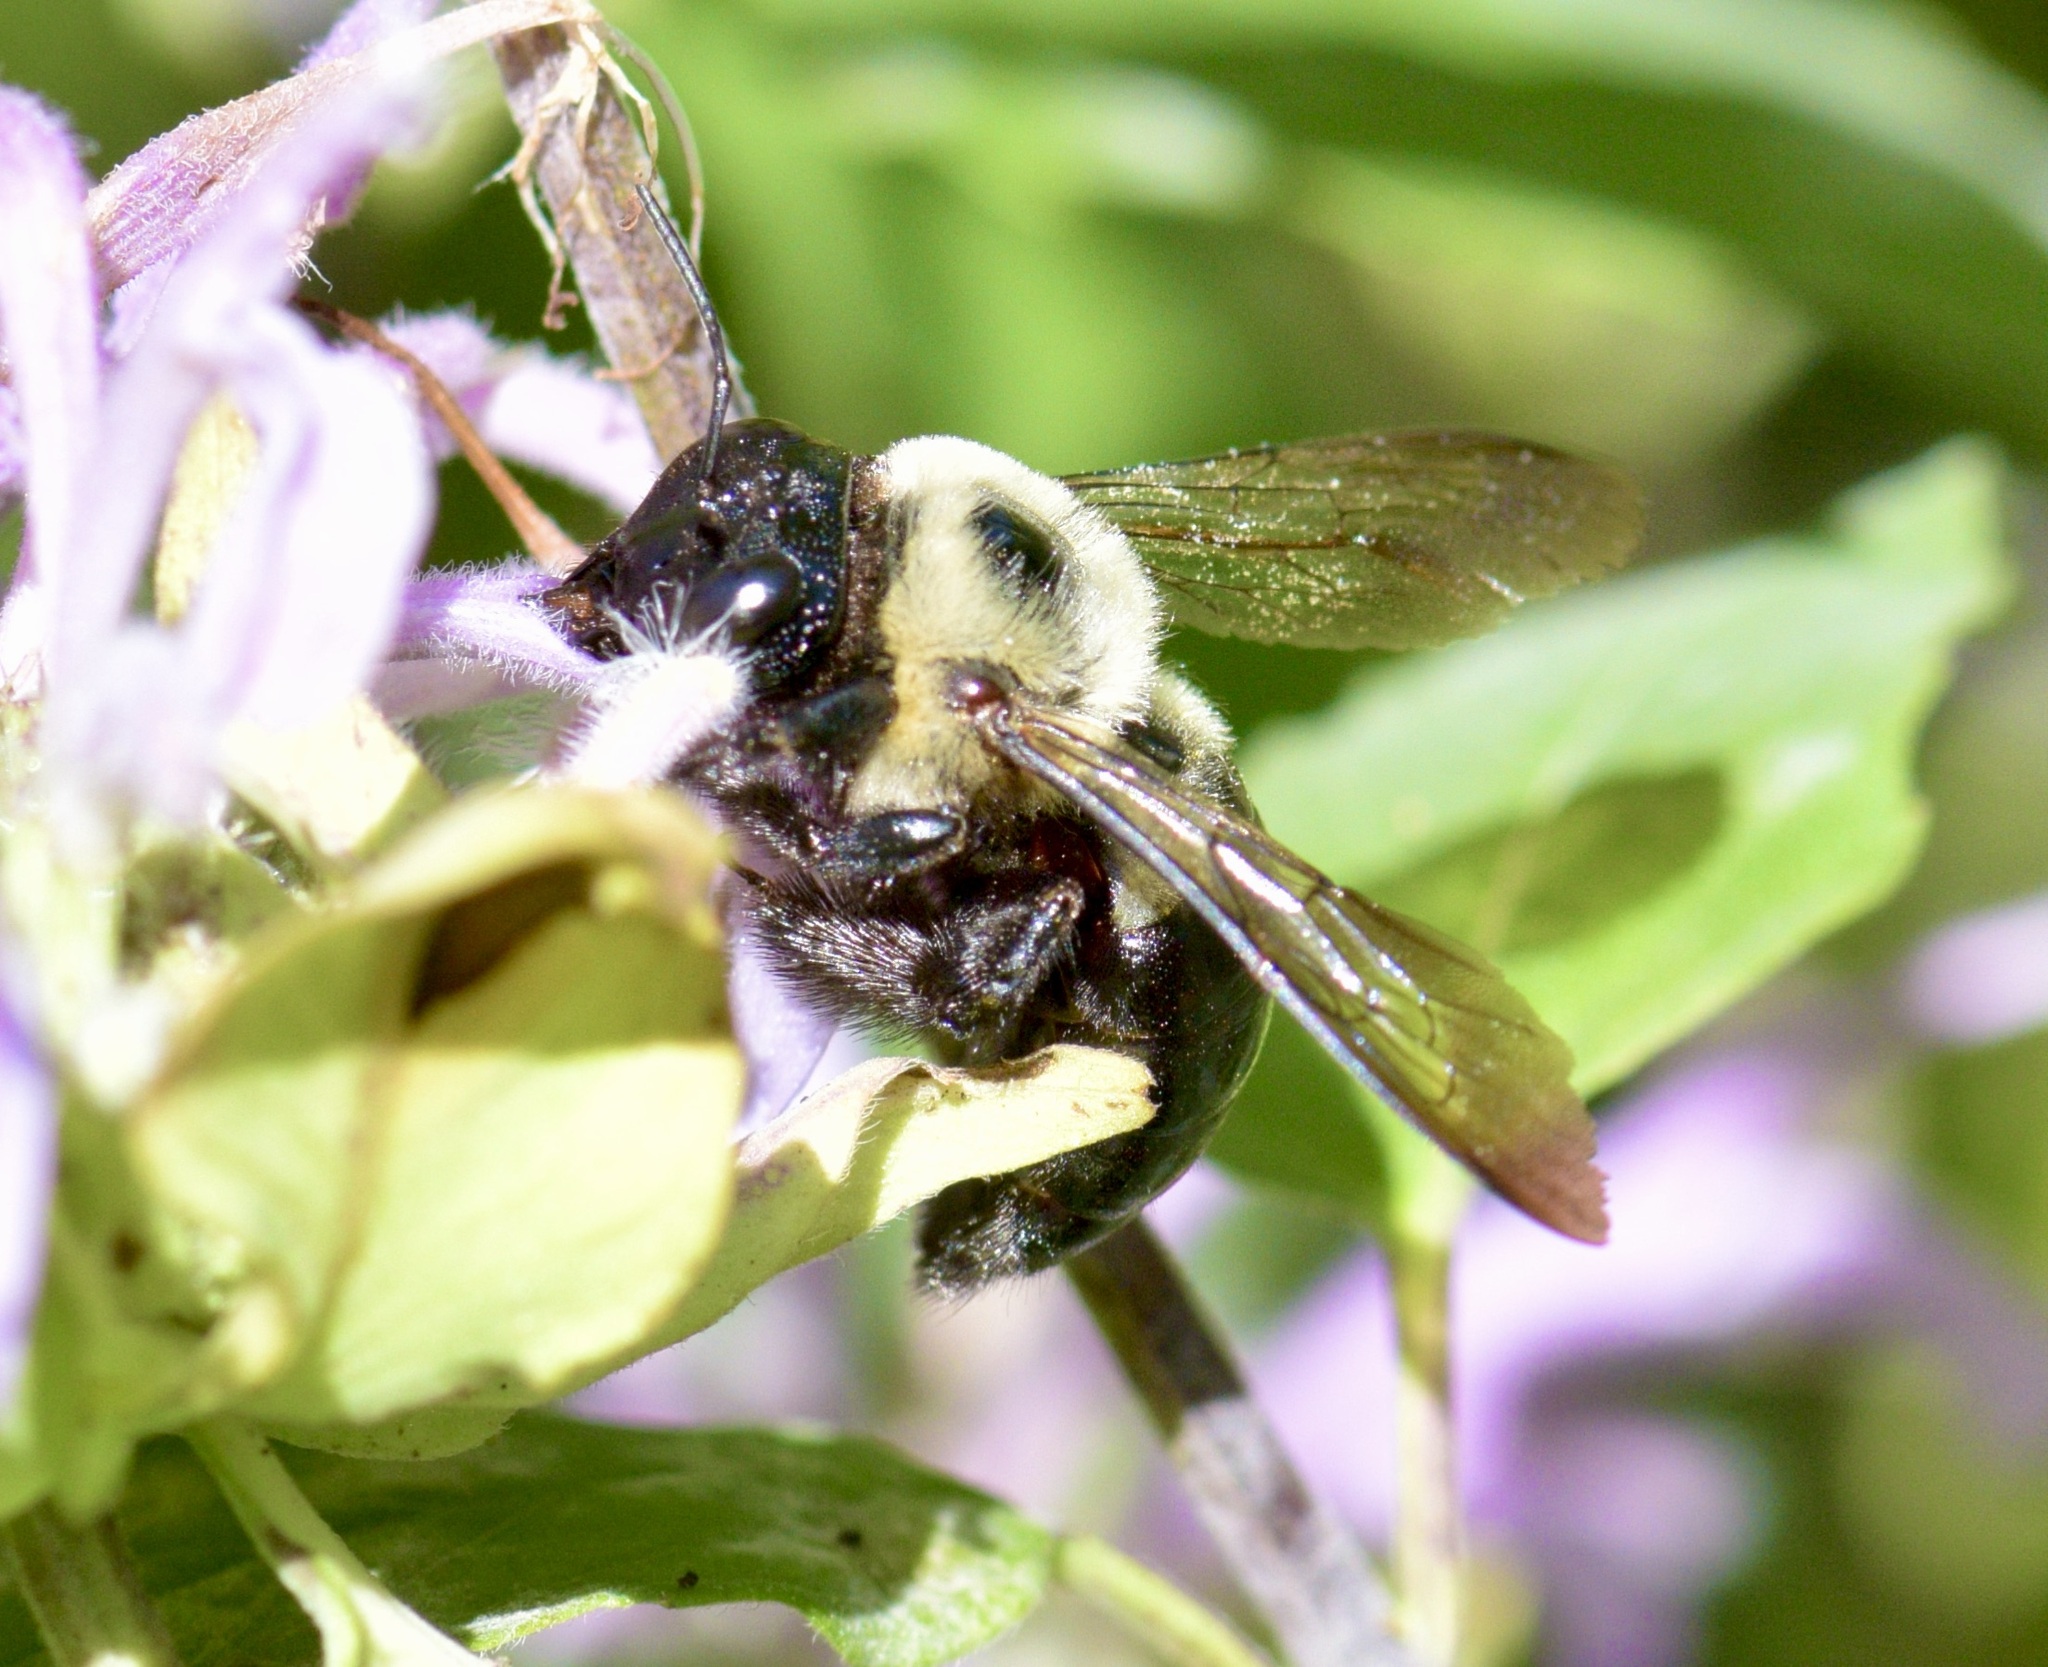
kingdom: Animalia
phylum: Arthropoda
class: Insecta
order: Hymenoptera
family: Apidae
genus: Xylocopa
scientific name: Xylocopa virginica
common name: Carpenter bee
